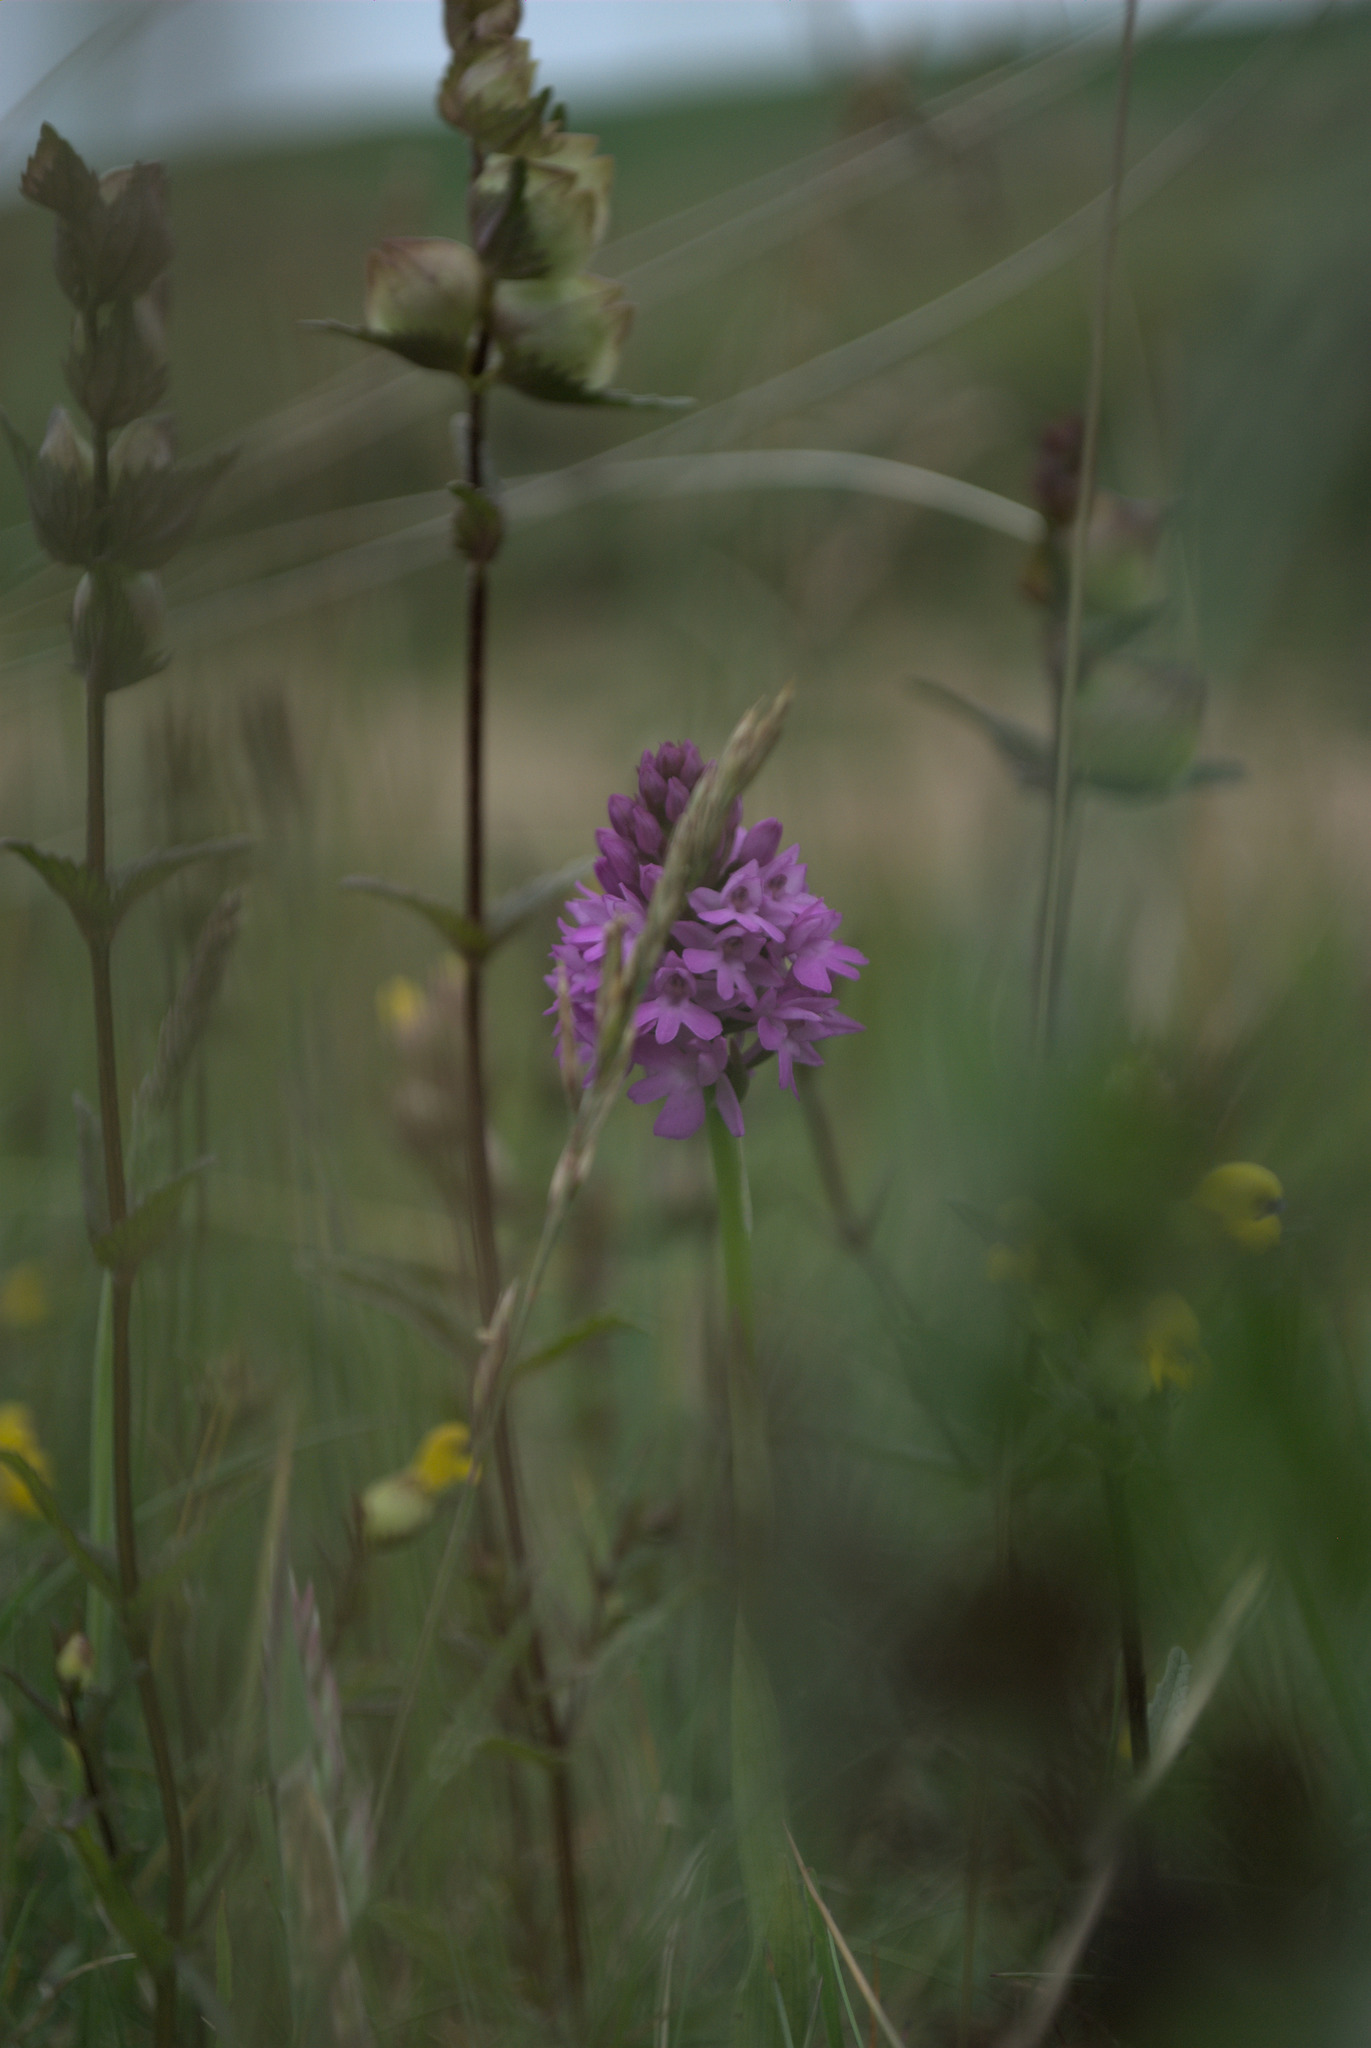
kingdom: Plantae
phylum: Tracheophyta
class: Liliopsida
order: Asparagales
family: Orchidaceae
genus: Anacamptis
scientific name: Anacamptis pyramidalis
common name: Pyramidal orchid
